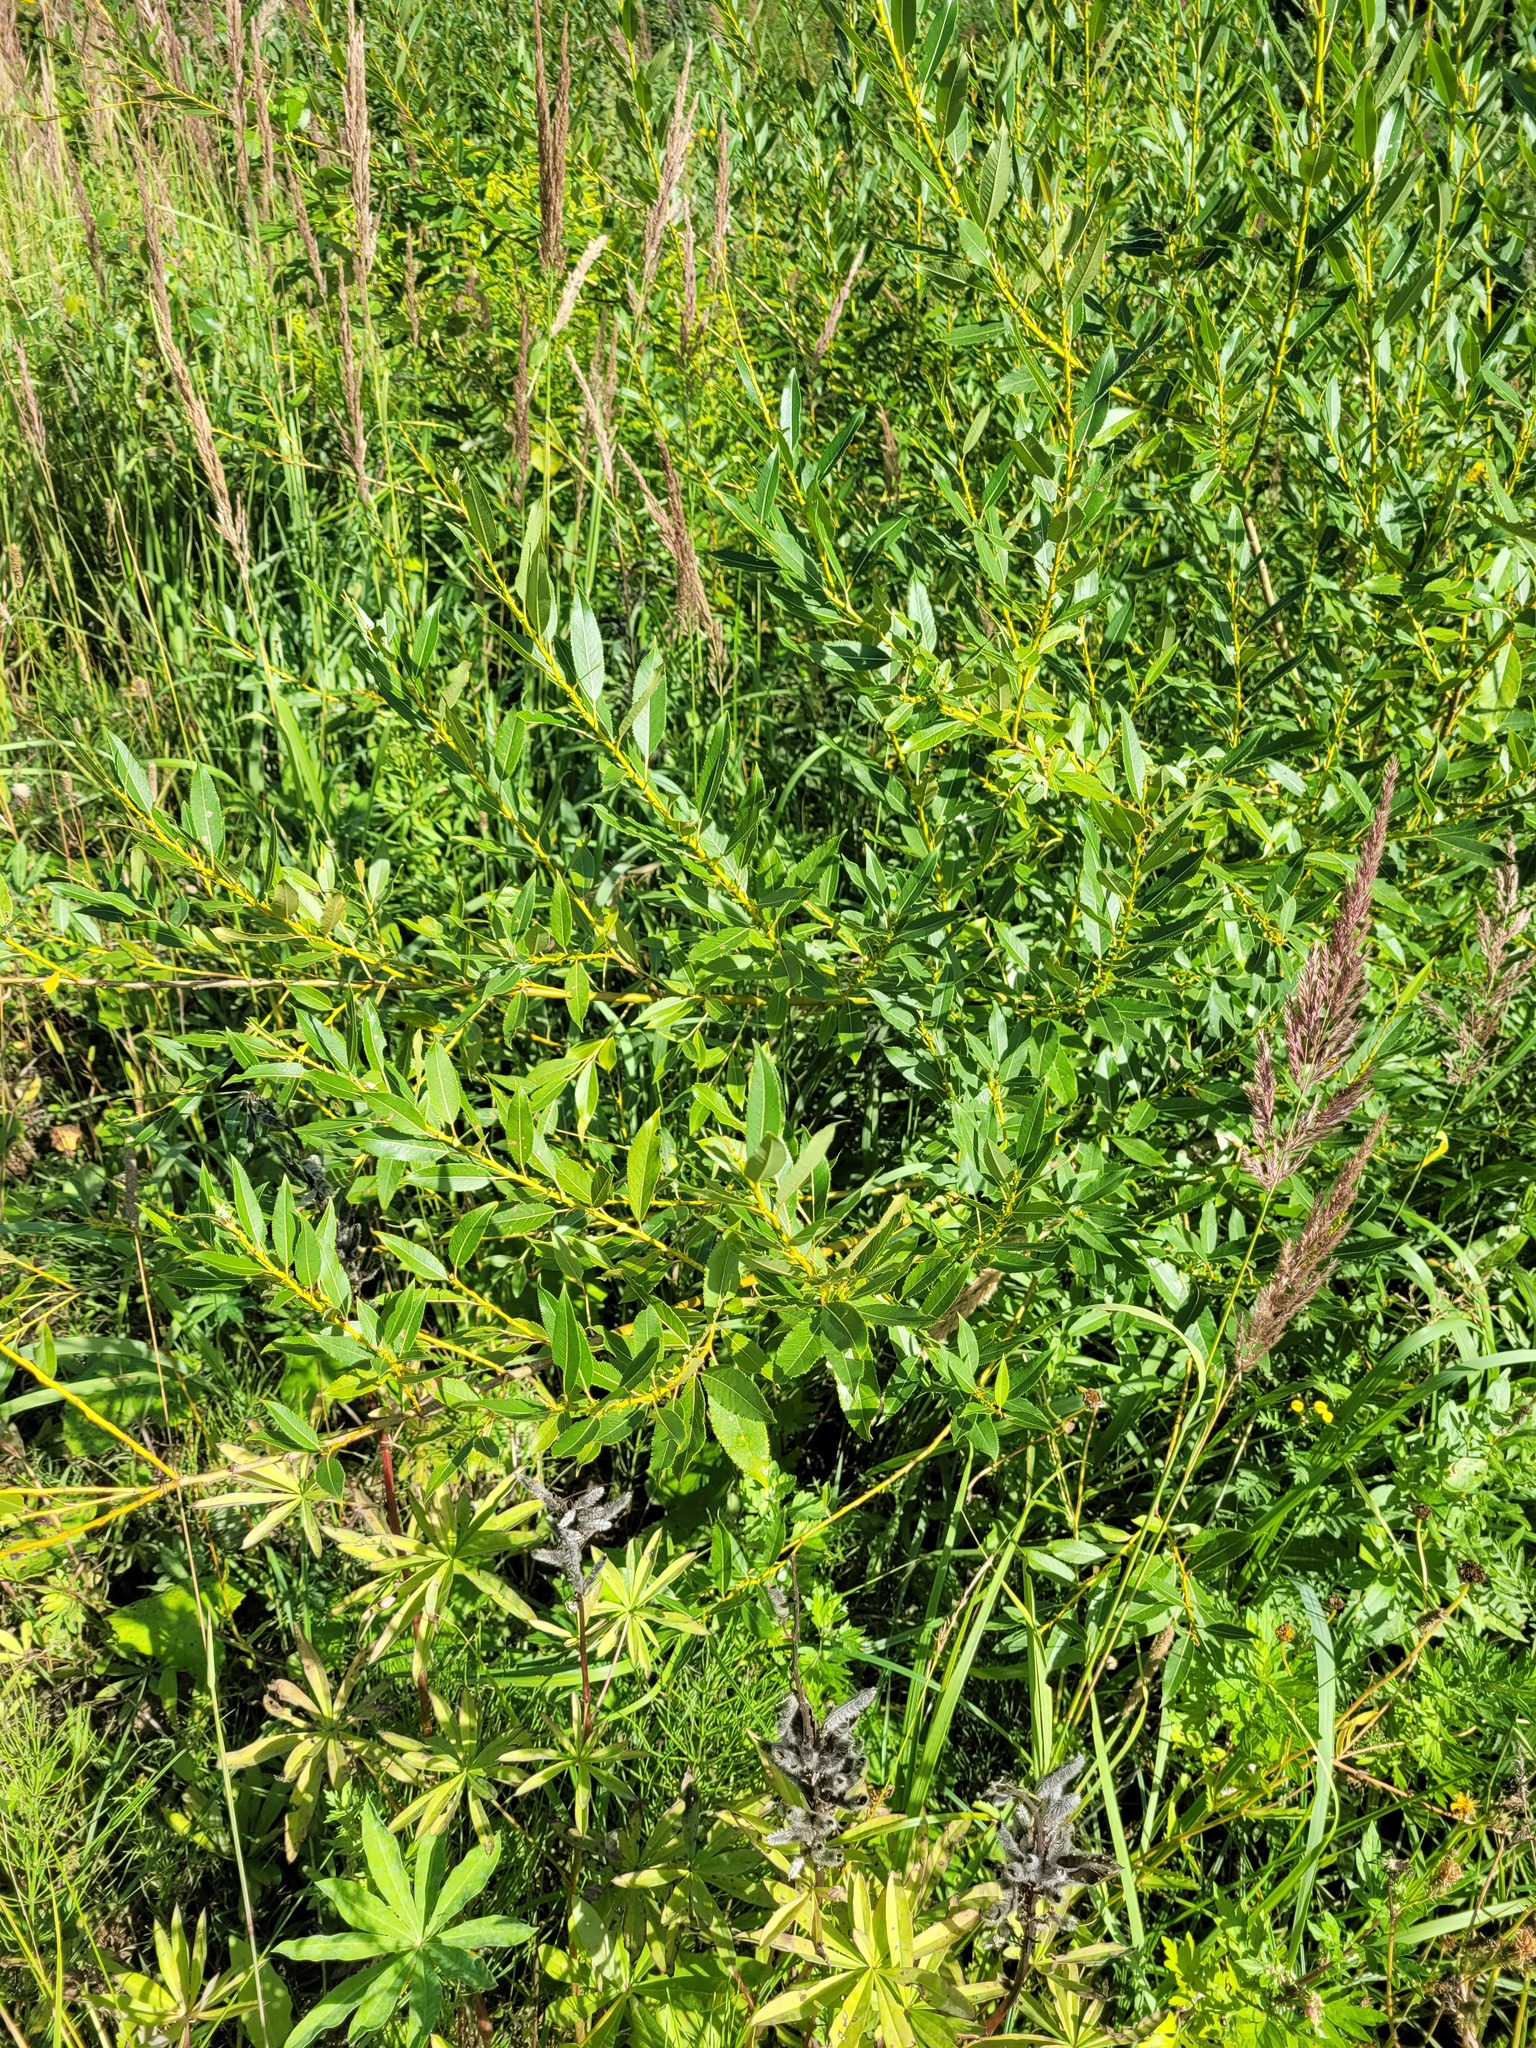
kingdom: Plantae
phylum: Tracheophyta
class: Magnoliopsida
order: Malpighiales
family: Salicaceae
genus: Salix
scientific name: Salix triandra
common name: Almond willow
